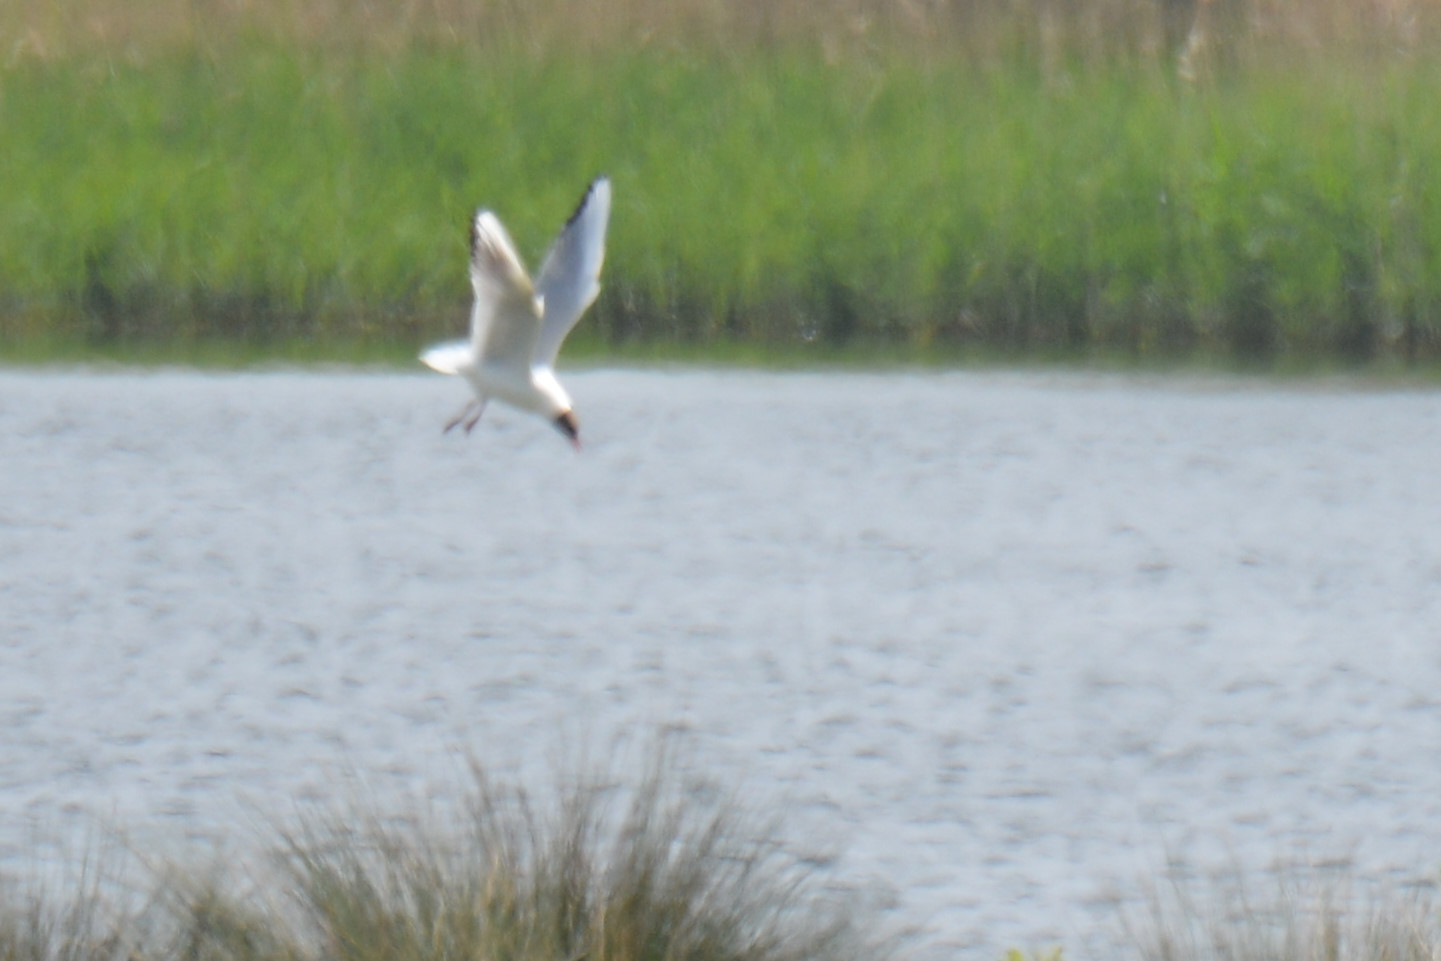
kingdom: Animalia
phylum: Chordata
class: Aves
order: Charadriiformes
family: Laridae
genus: Chroicocephalus
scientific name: Chroicocephalus ridibundus
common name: Black-headed gull
